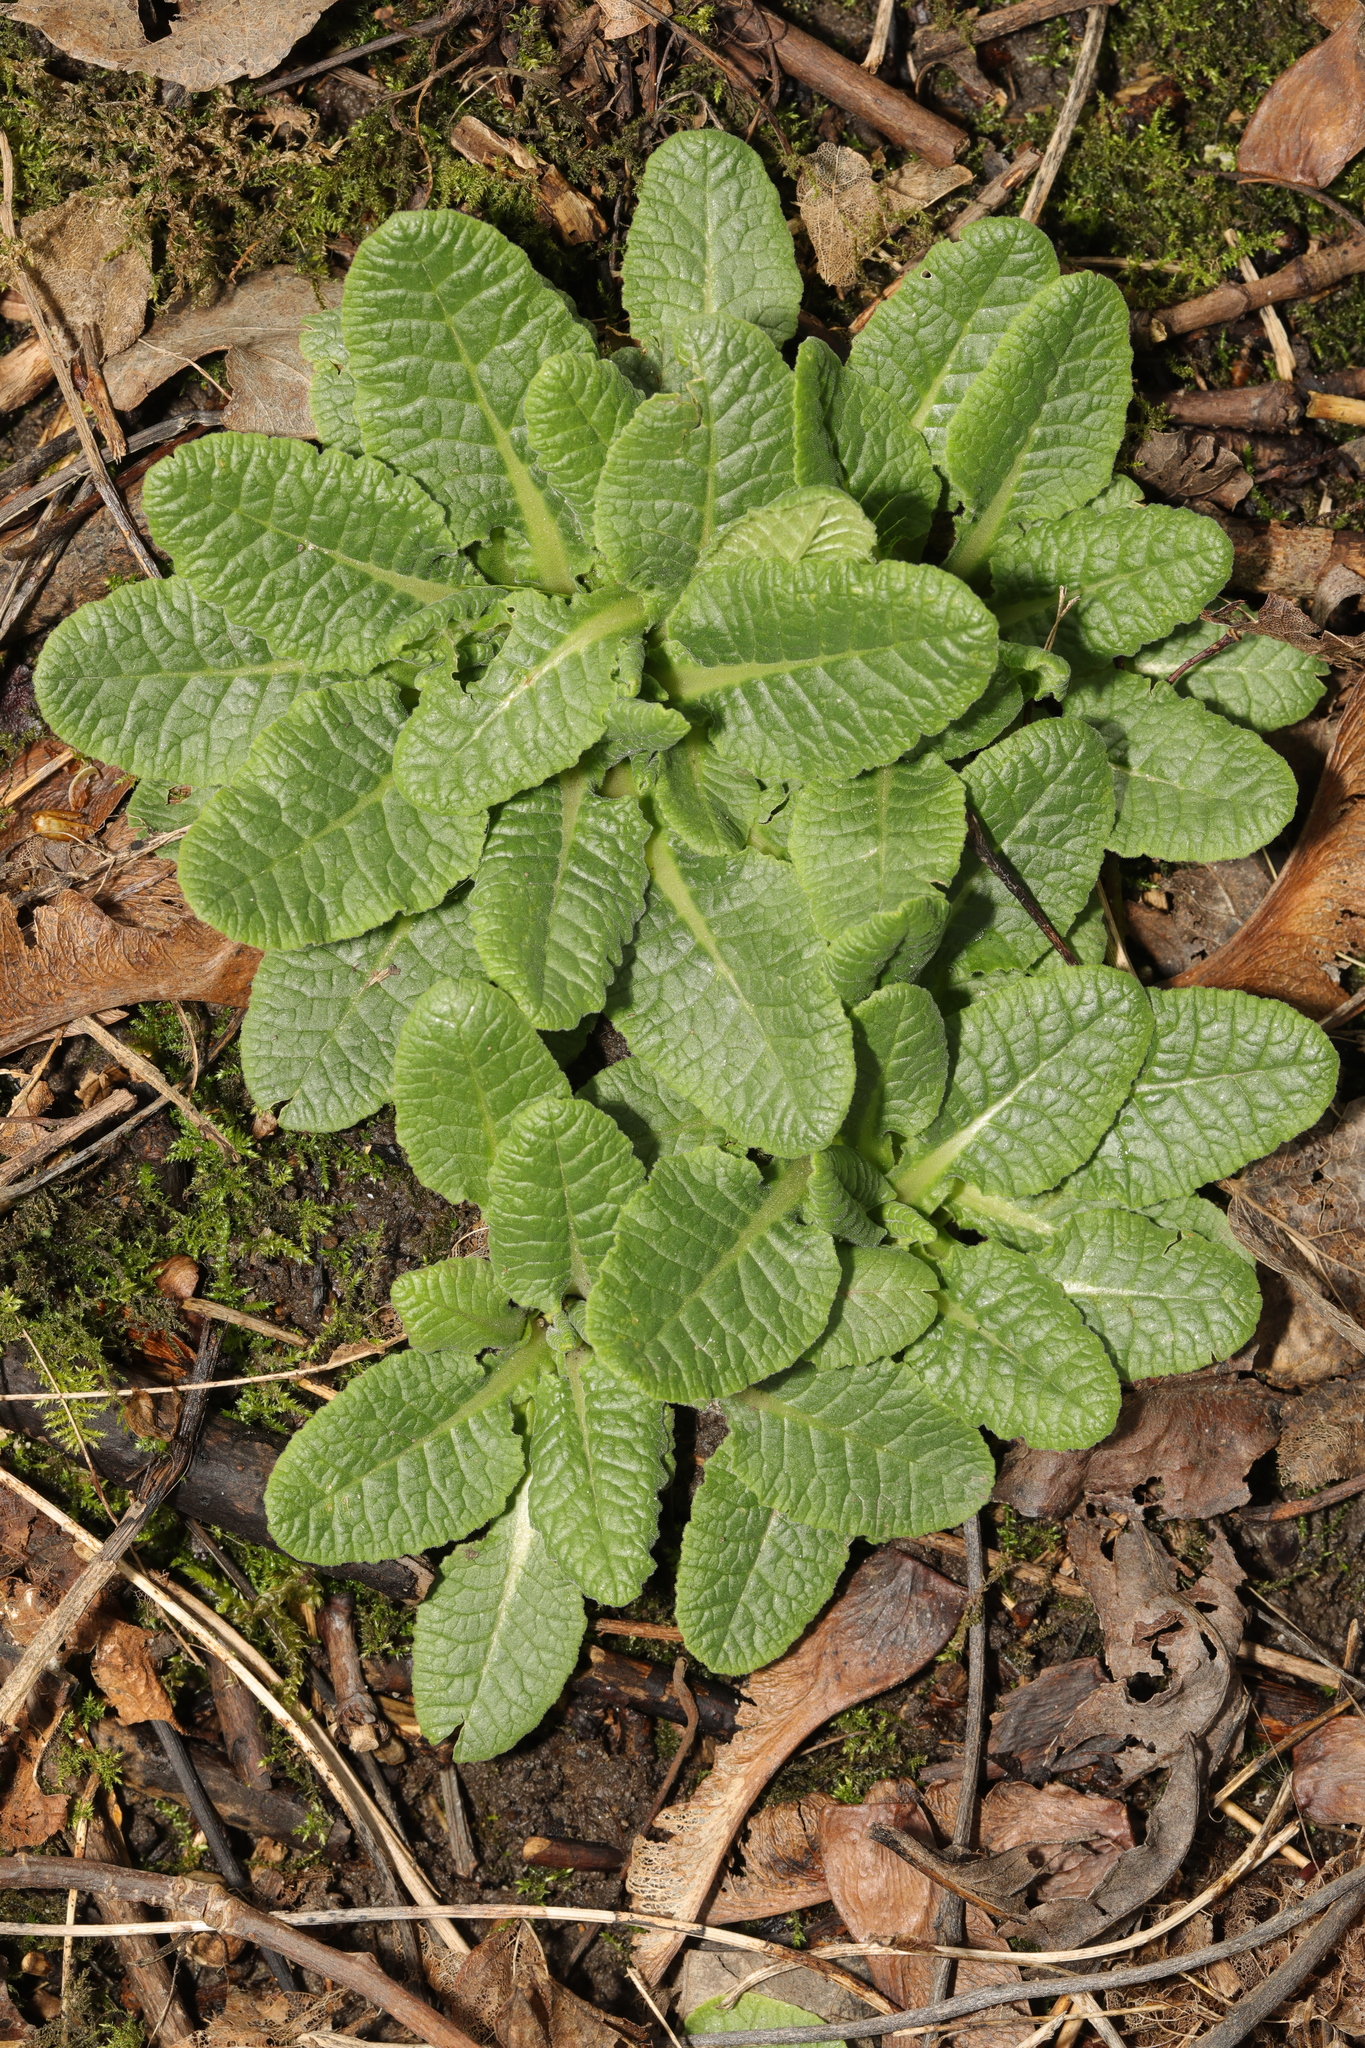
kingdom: Plantae
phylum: Tracheophyta
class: Magnoliopsida
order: Ericales
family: Primulaceae
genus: Primula
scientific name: Primula veris
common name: Cowslip
